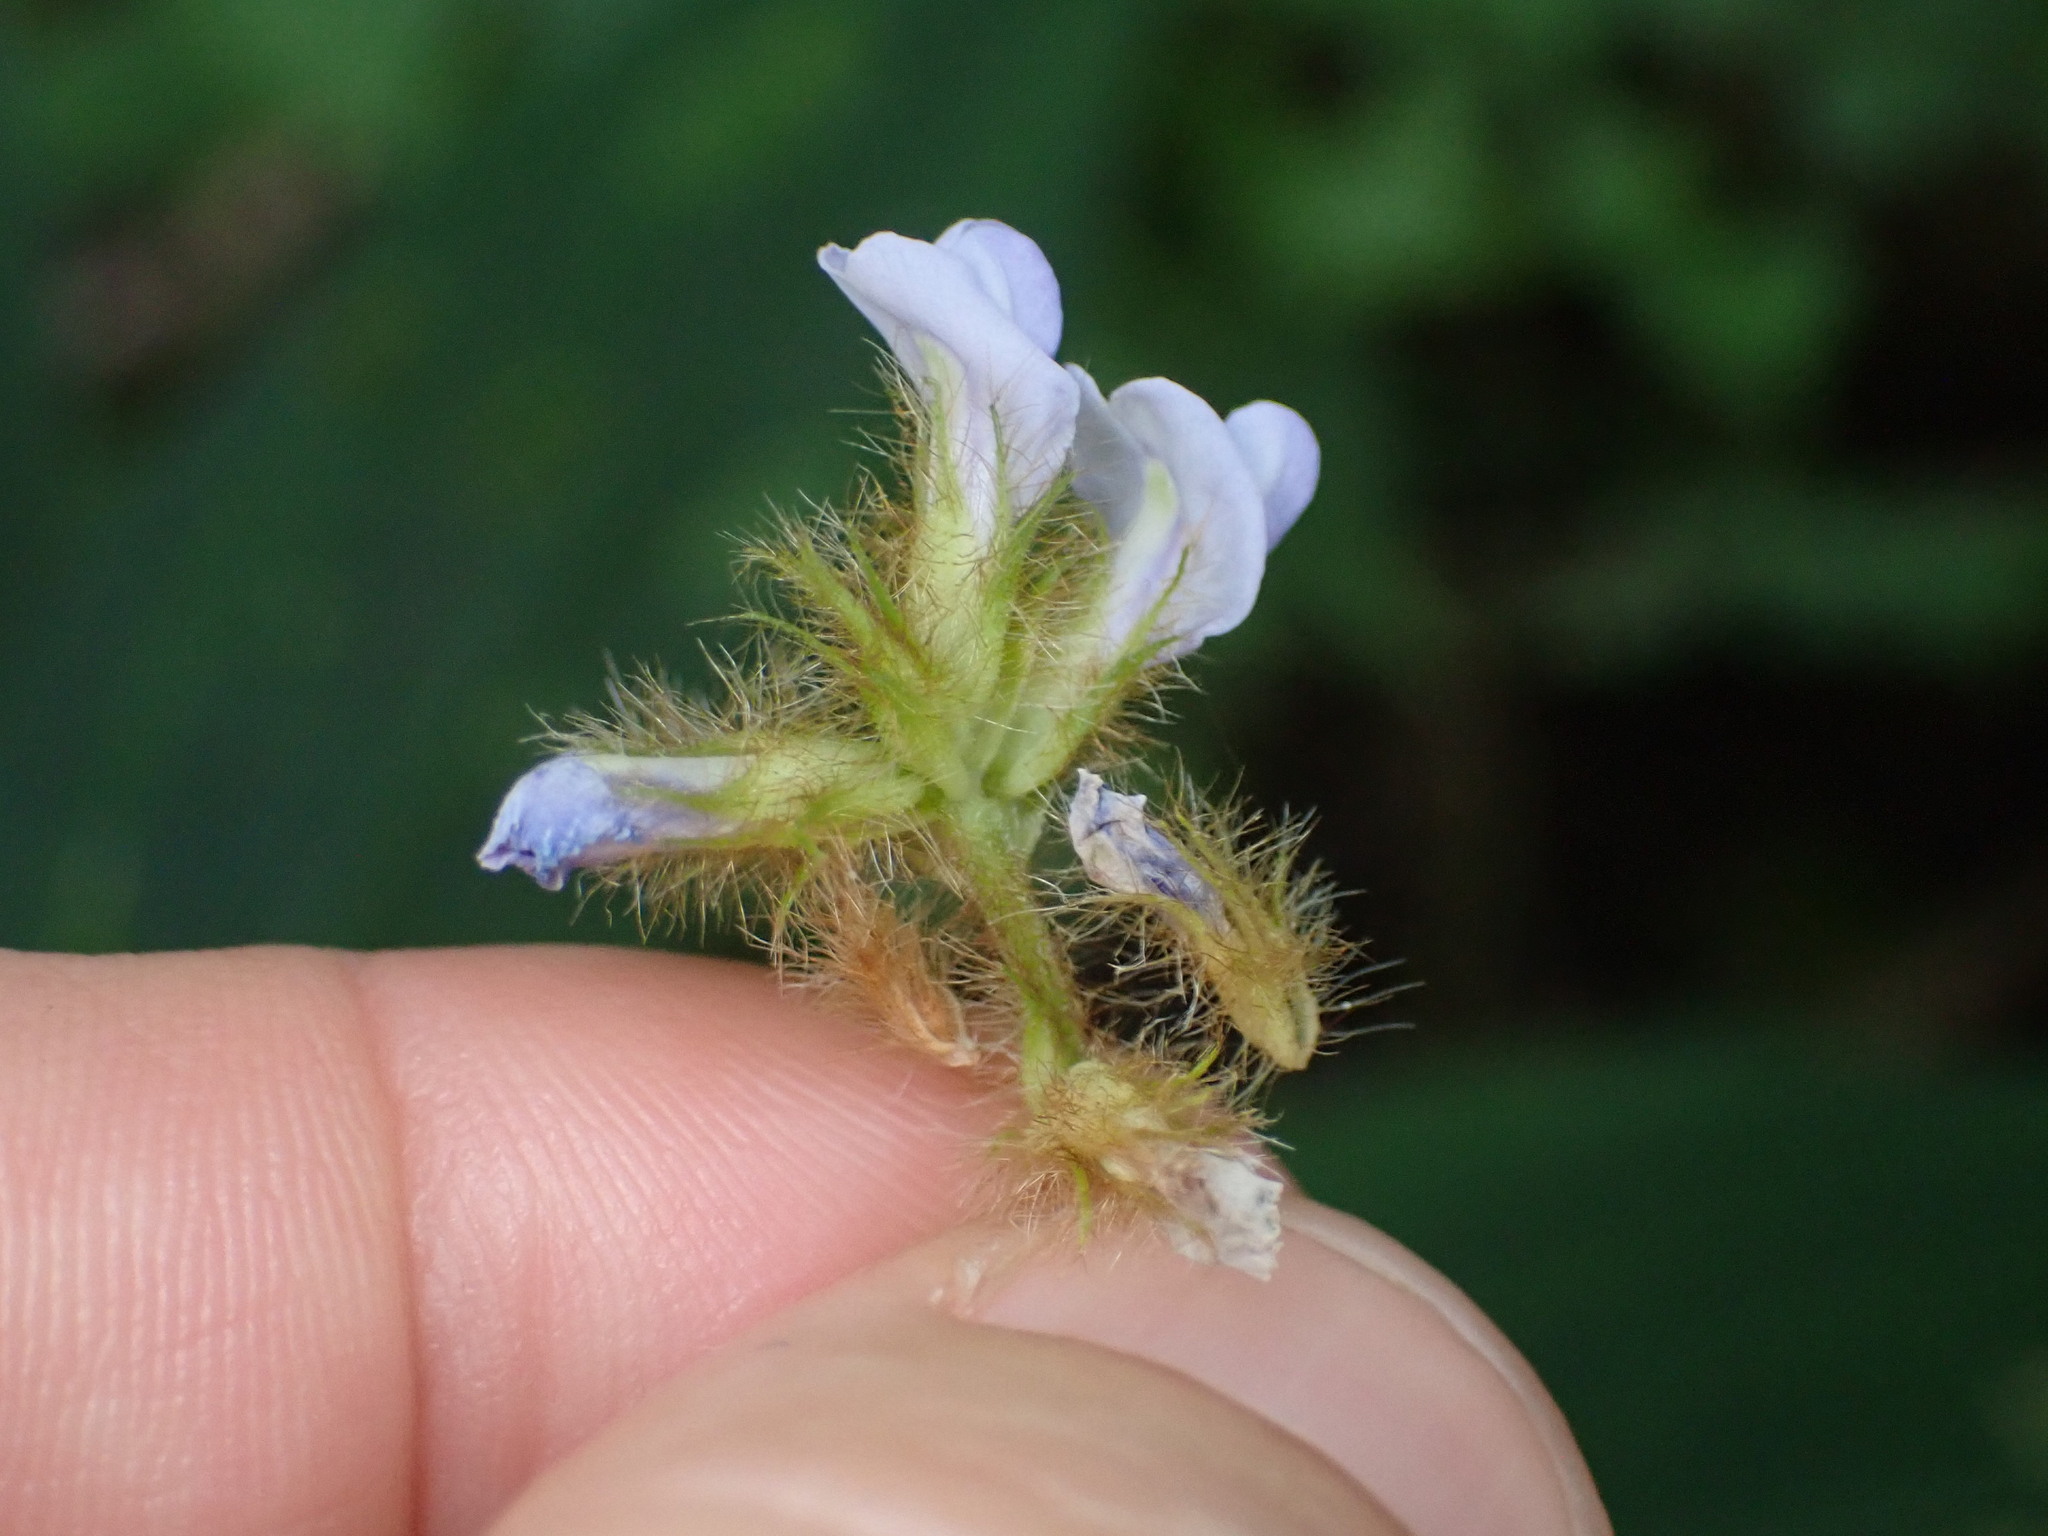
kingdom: Plantae
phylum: Tracheophyta
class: Magnoliopsida
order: Fabales
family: Fabaceae
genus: Calopogonium
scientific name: Calopogonium mucunoides
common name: Calopo
